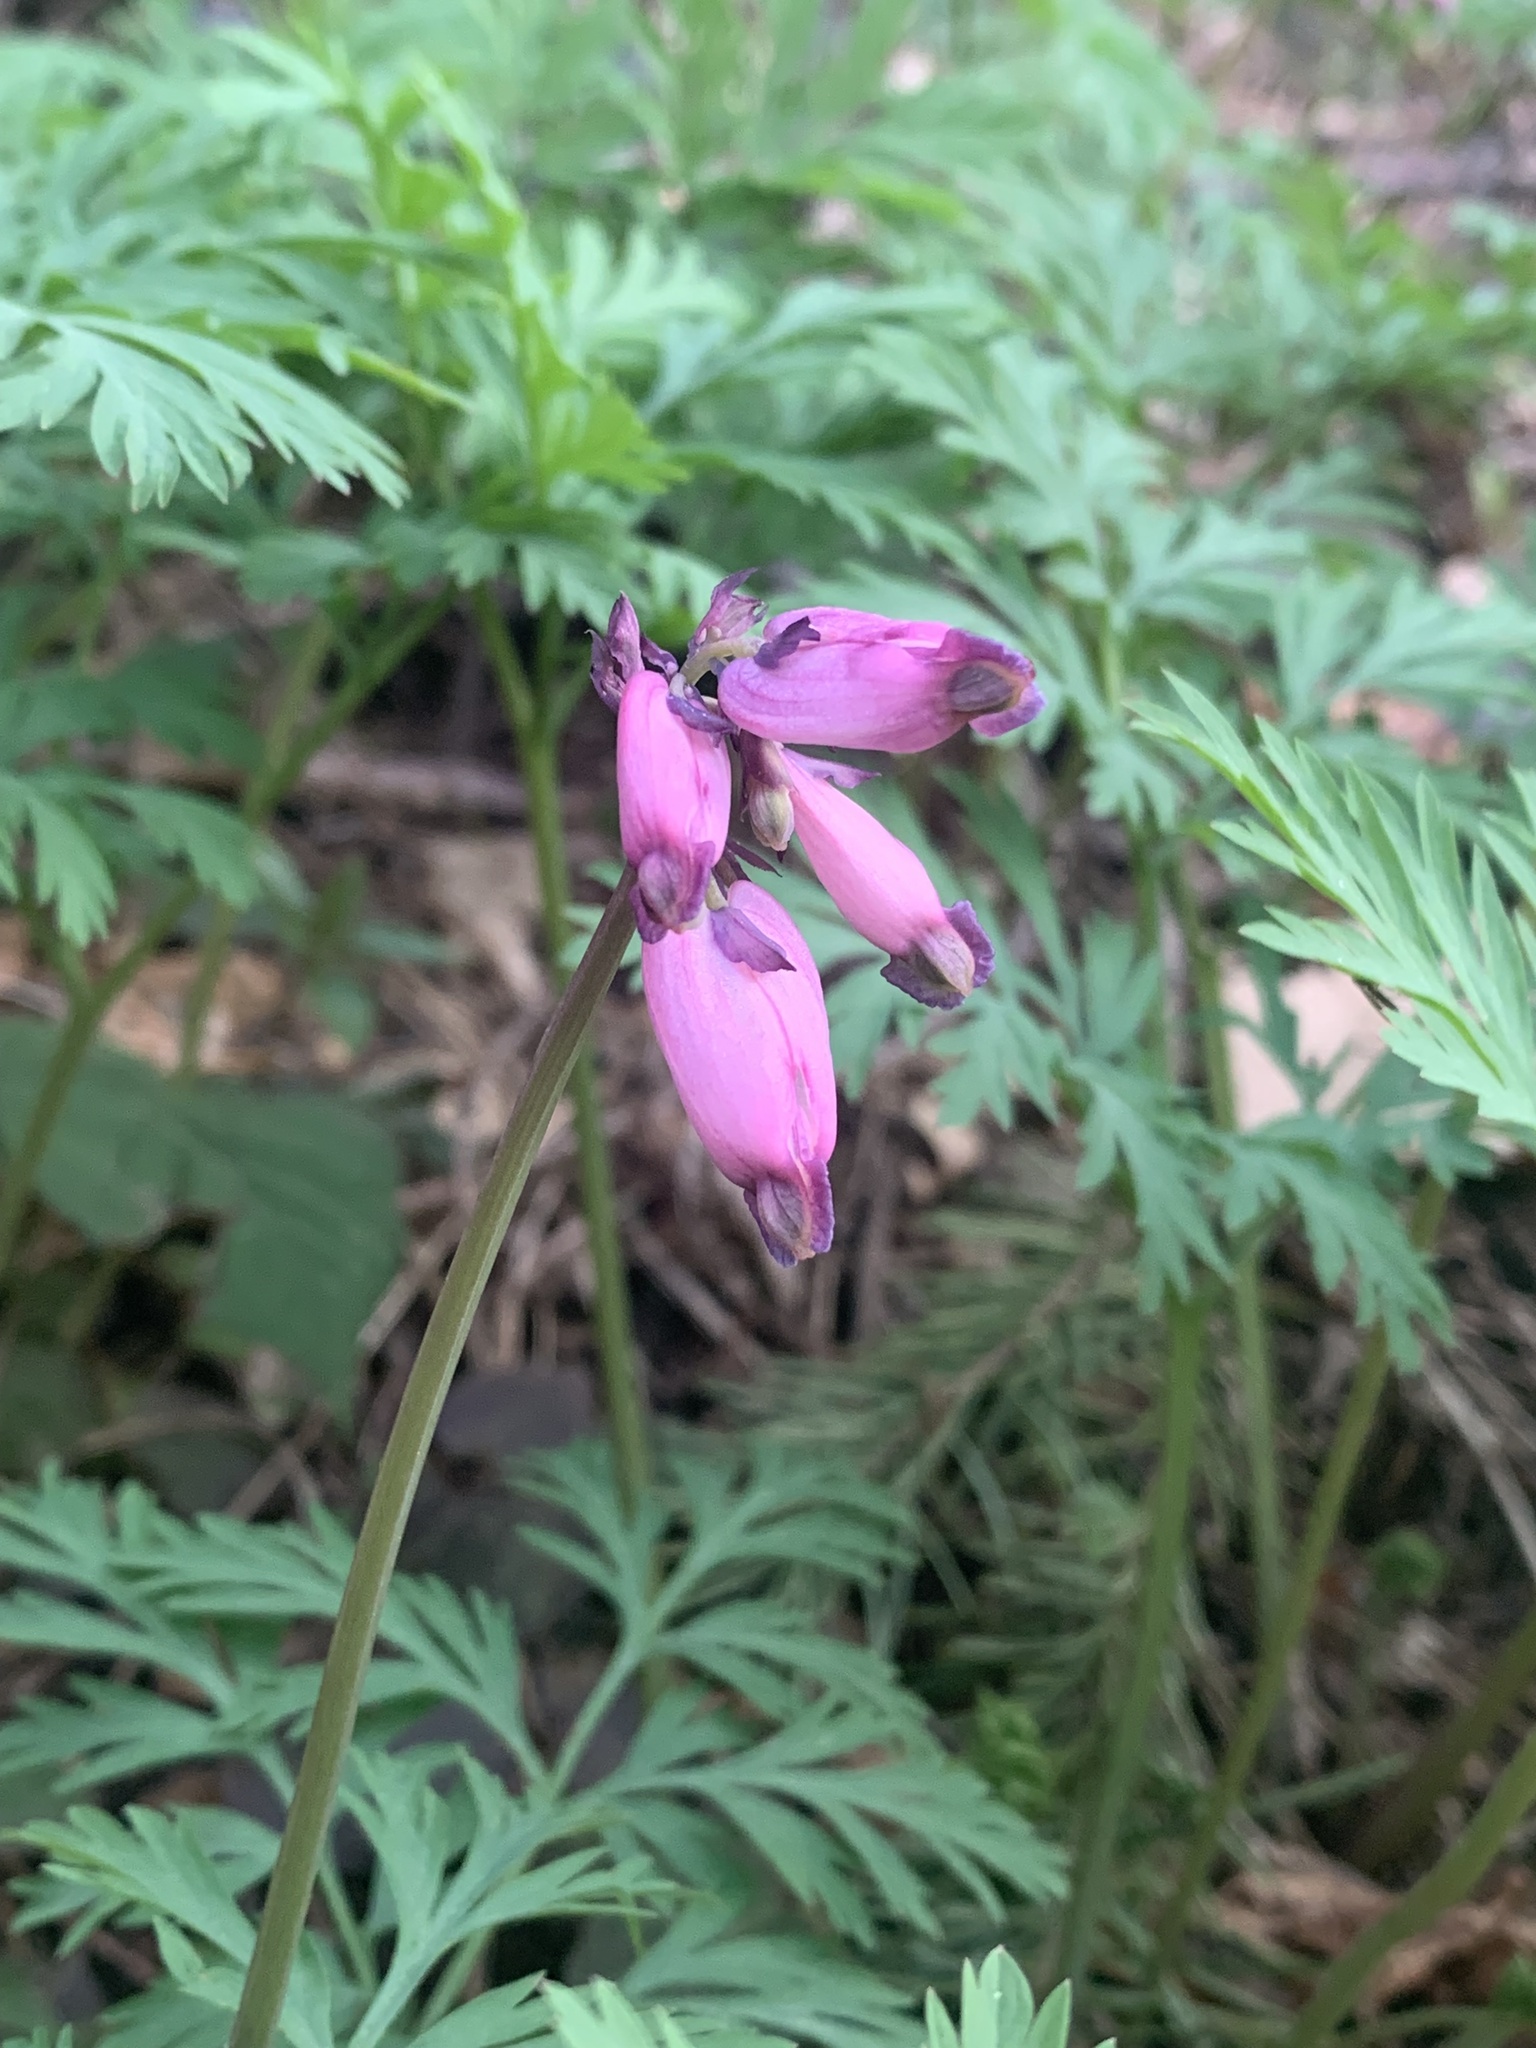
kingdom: Plantae
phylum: Tracheophyta
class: Magnoliopsida
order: Ranunculales
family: Papaveraceae
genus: Dicentra
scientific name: Dicentra formosa
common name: Bleeding-heart
